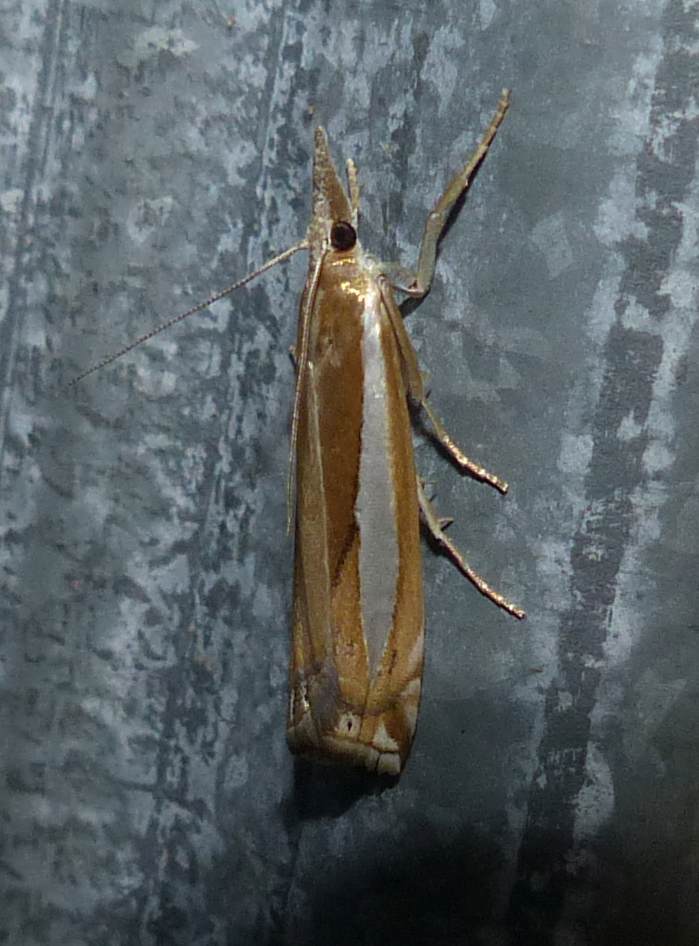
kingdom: Animalia
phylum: Arthropoda
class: Insecta
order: Lepidoptera
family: Crambidae
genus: Crambus
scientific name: Crambus praefectellus
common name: Common grass-veneer
